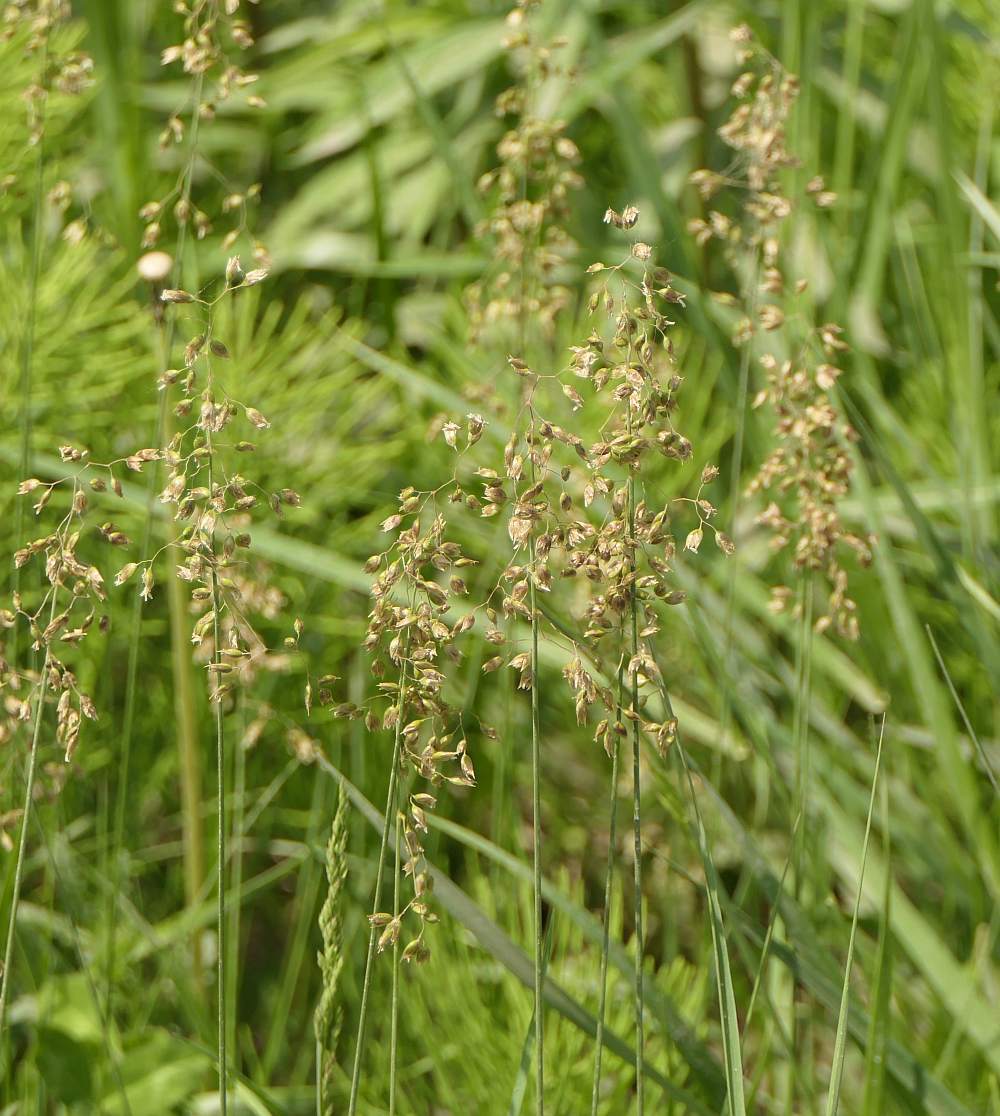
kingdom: Plantae
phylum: Tracheophyta
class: Liliopsida
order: Poales
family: Poaceae
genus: Anthoxanthum
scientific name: Anthoxanthum nitens
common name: Holy grass
